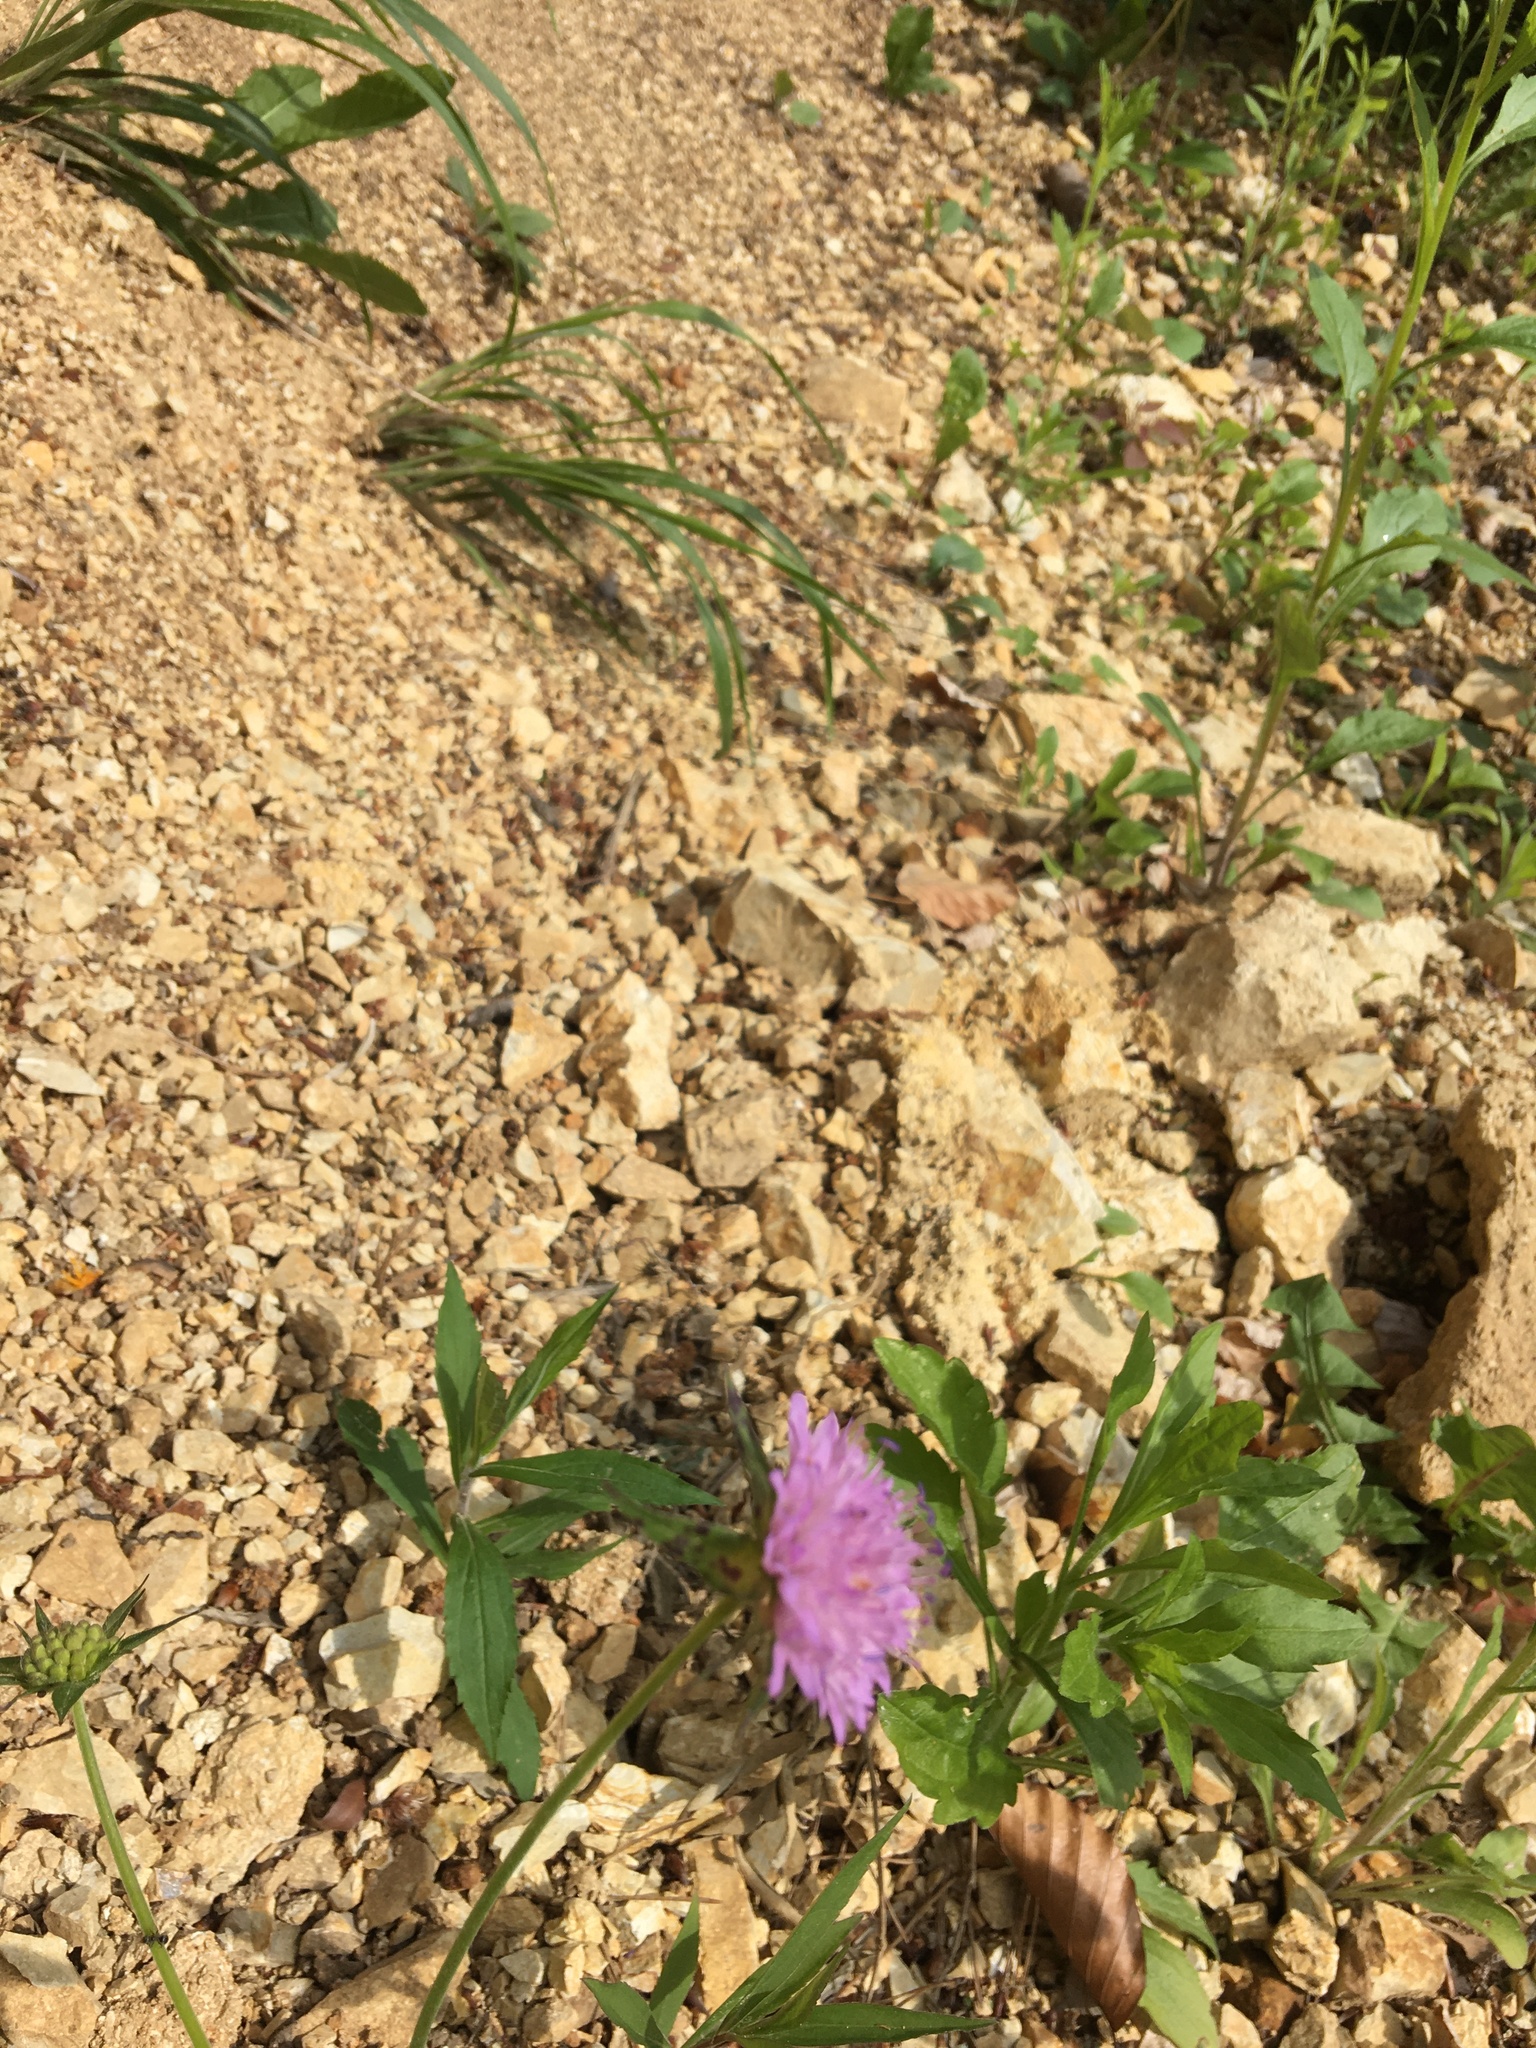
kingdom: Plantae
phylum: Tracheophyta
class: Magnoliopsida
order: Dipsacales
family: Caprifoliaceae
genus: Knautia
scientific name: Knautia drymeia
